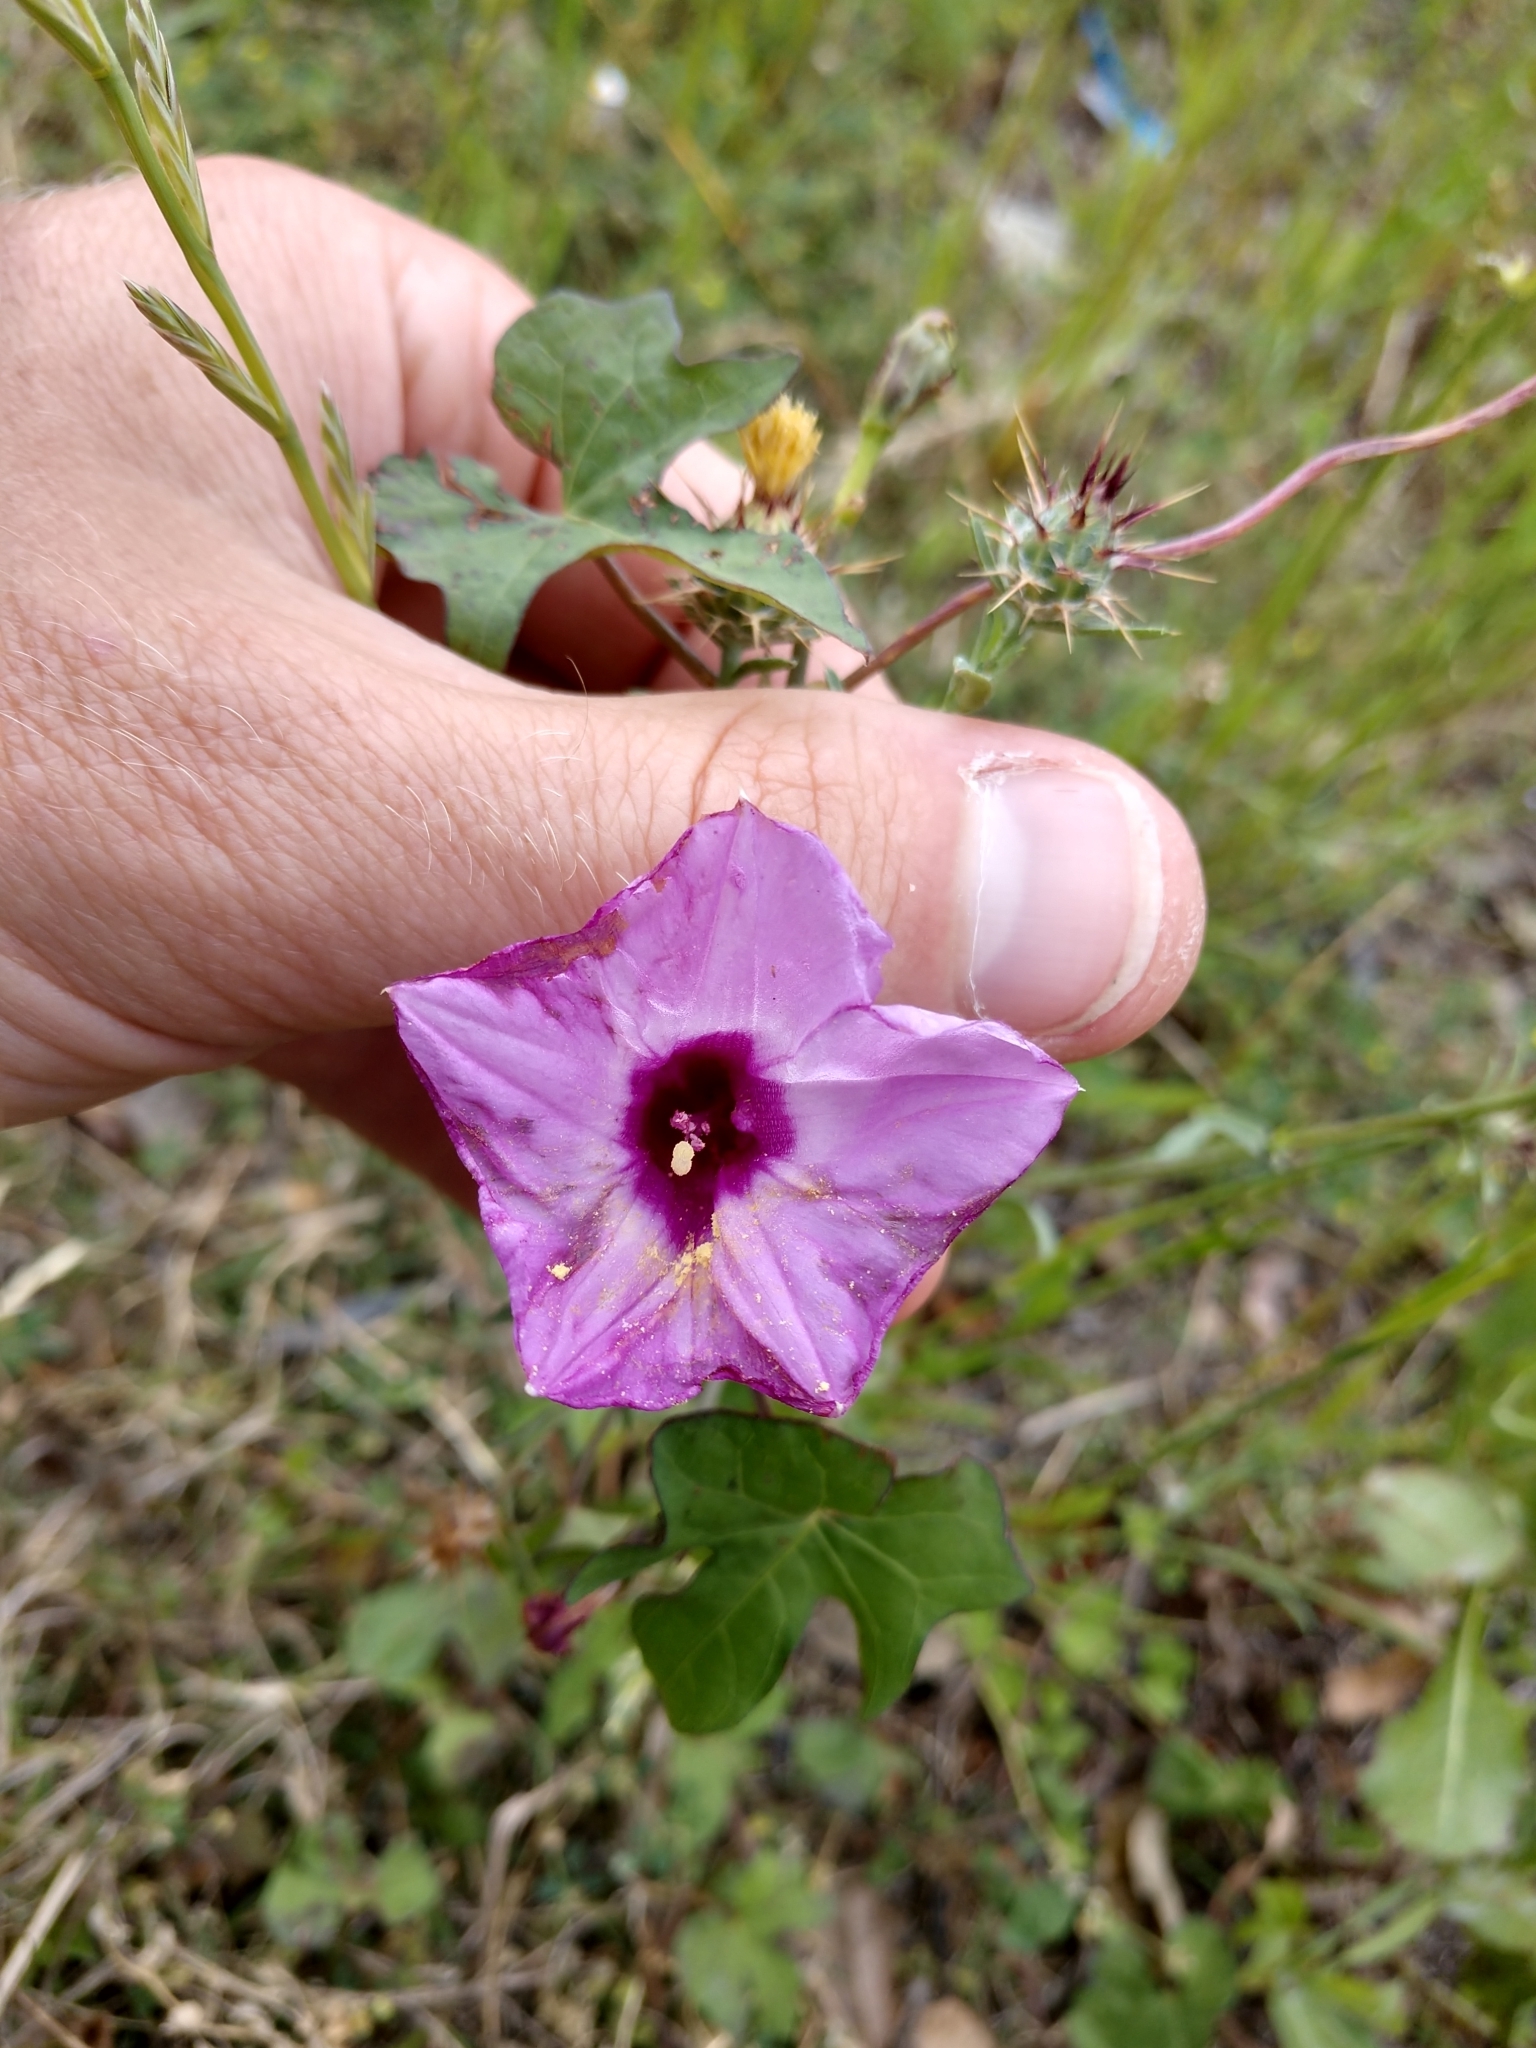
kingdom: Plantae
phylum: Tracheophyta
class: Magnoliopsida
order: Solanales
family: Convolvulaceae
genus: Ipomoea
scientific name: Ipomoea cordatotriloba
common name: Cotton morning glory
